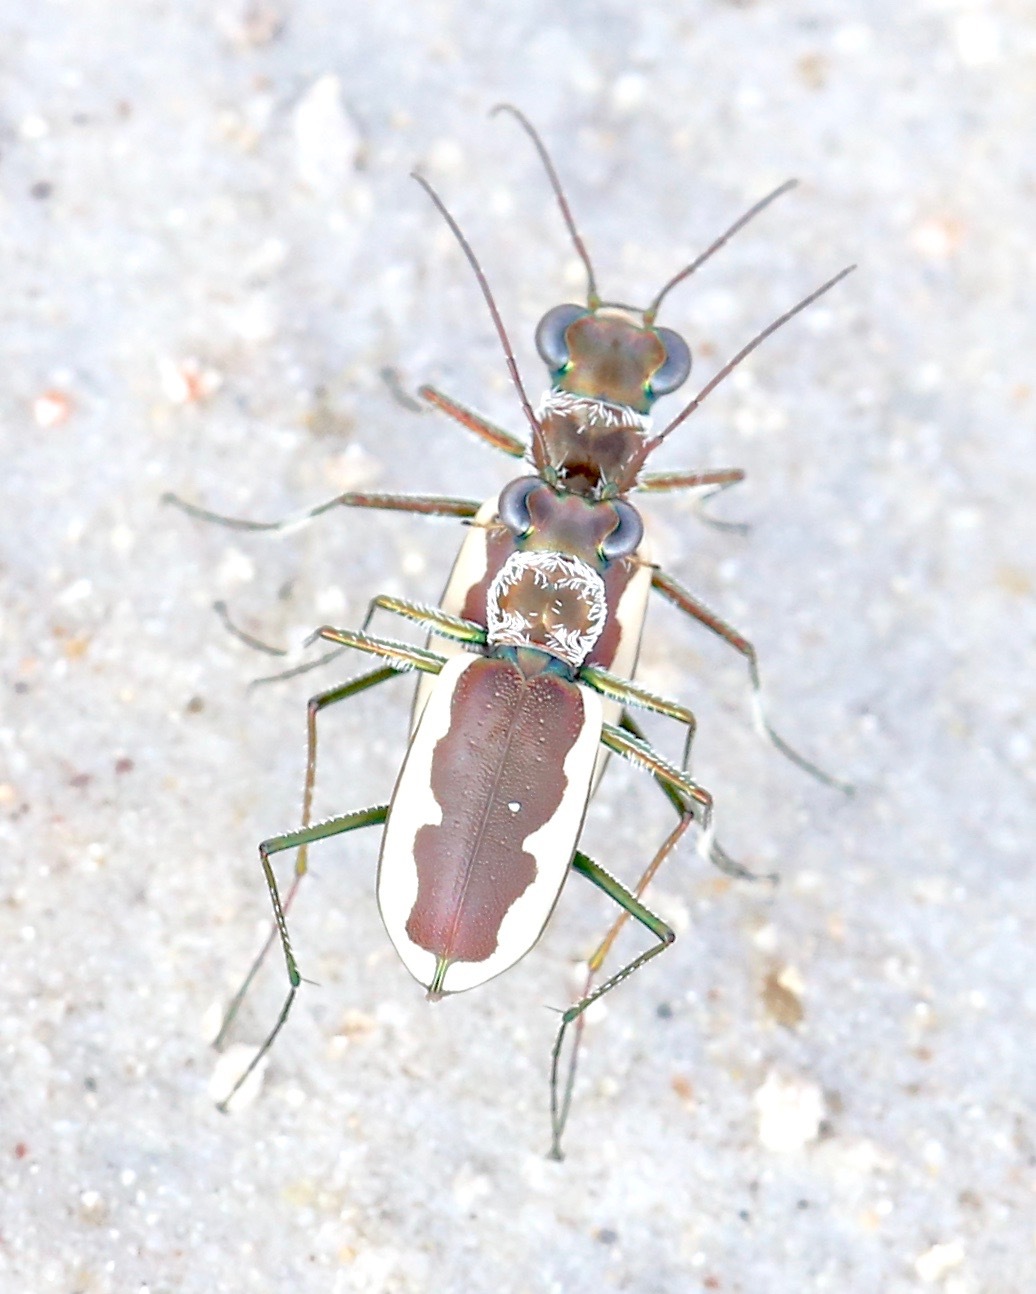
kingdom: Animalia
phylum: Arthropoda
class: Insecta
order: Coleoptera
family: Carabidae
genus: Eunota
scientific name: Eunota circumpicta
